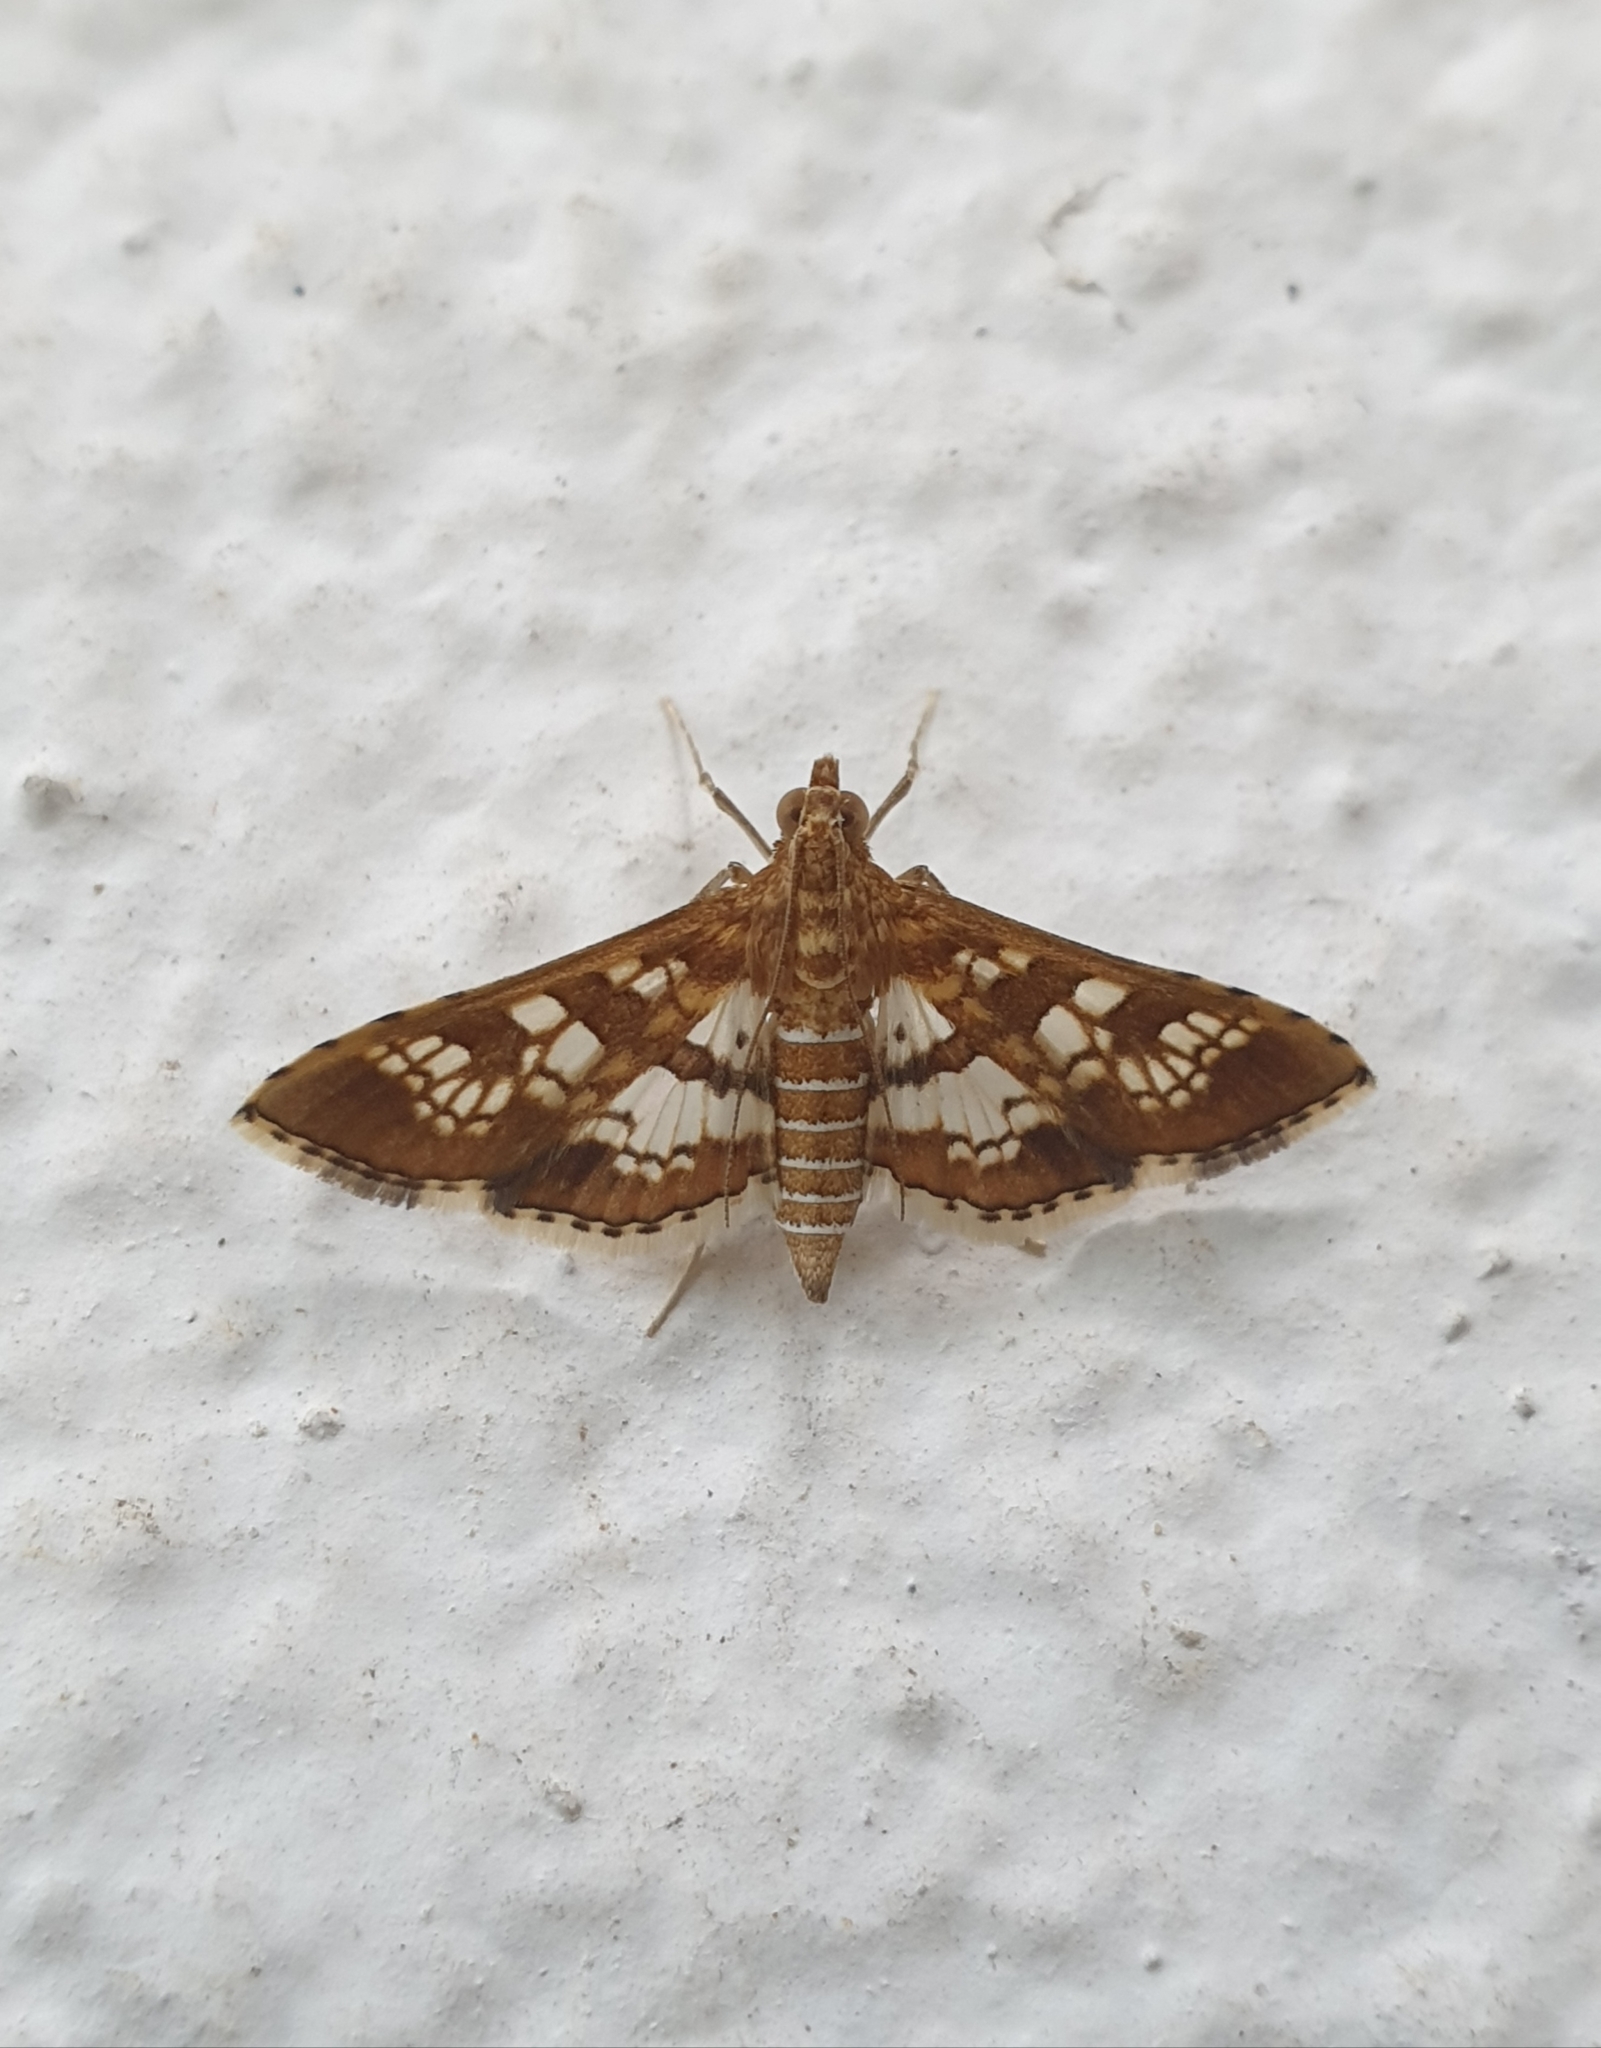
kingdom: Animalia
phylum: Arthropoda
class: Insecta
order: Lepidoptera
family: Crambidae
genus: Sameodes
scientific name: Sameodes cancellalis
